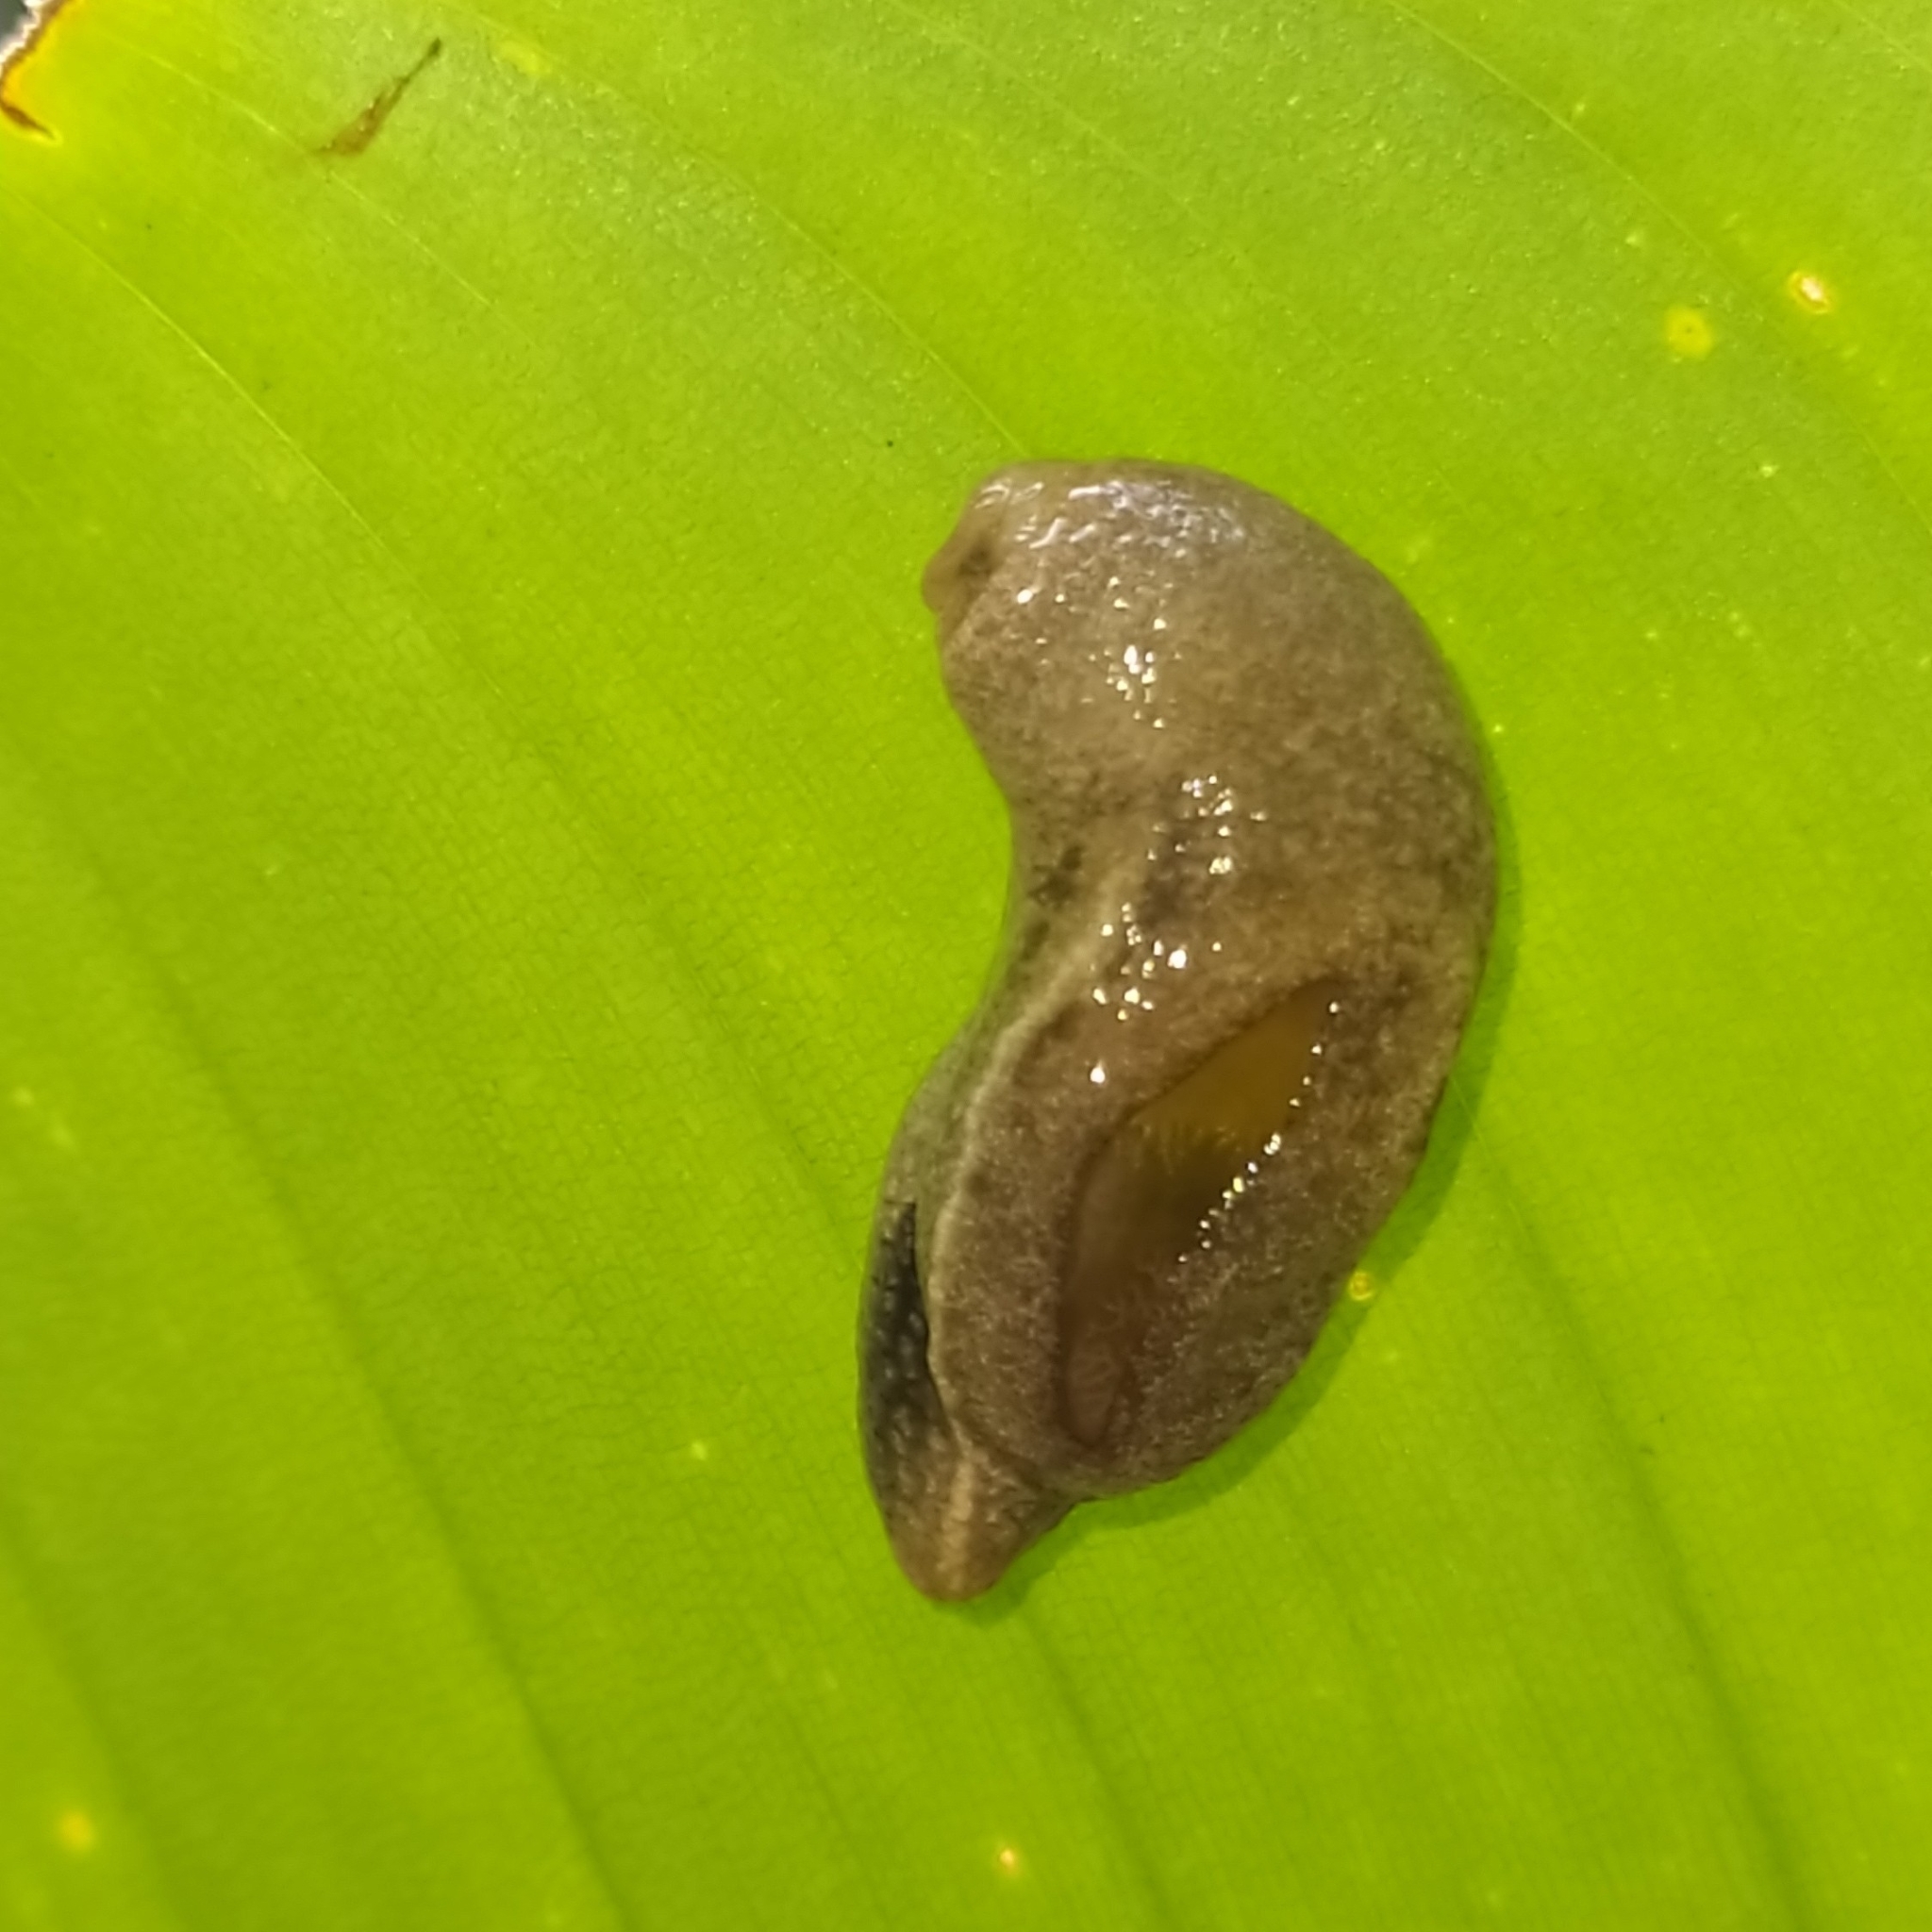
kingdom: Animalia
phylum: Mollusca
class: Gastropoda
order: Stylommatophora
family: Ariophantidae
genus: Parmarion
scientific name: Parmarion martensi
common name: Semi-slug
